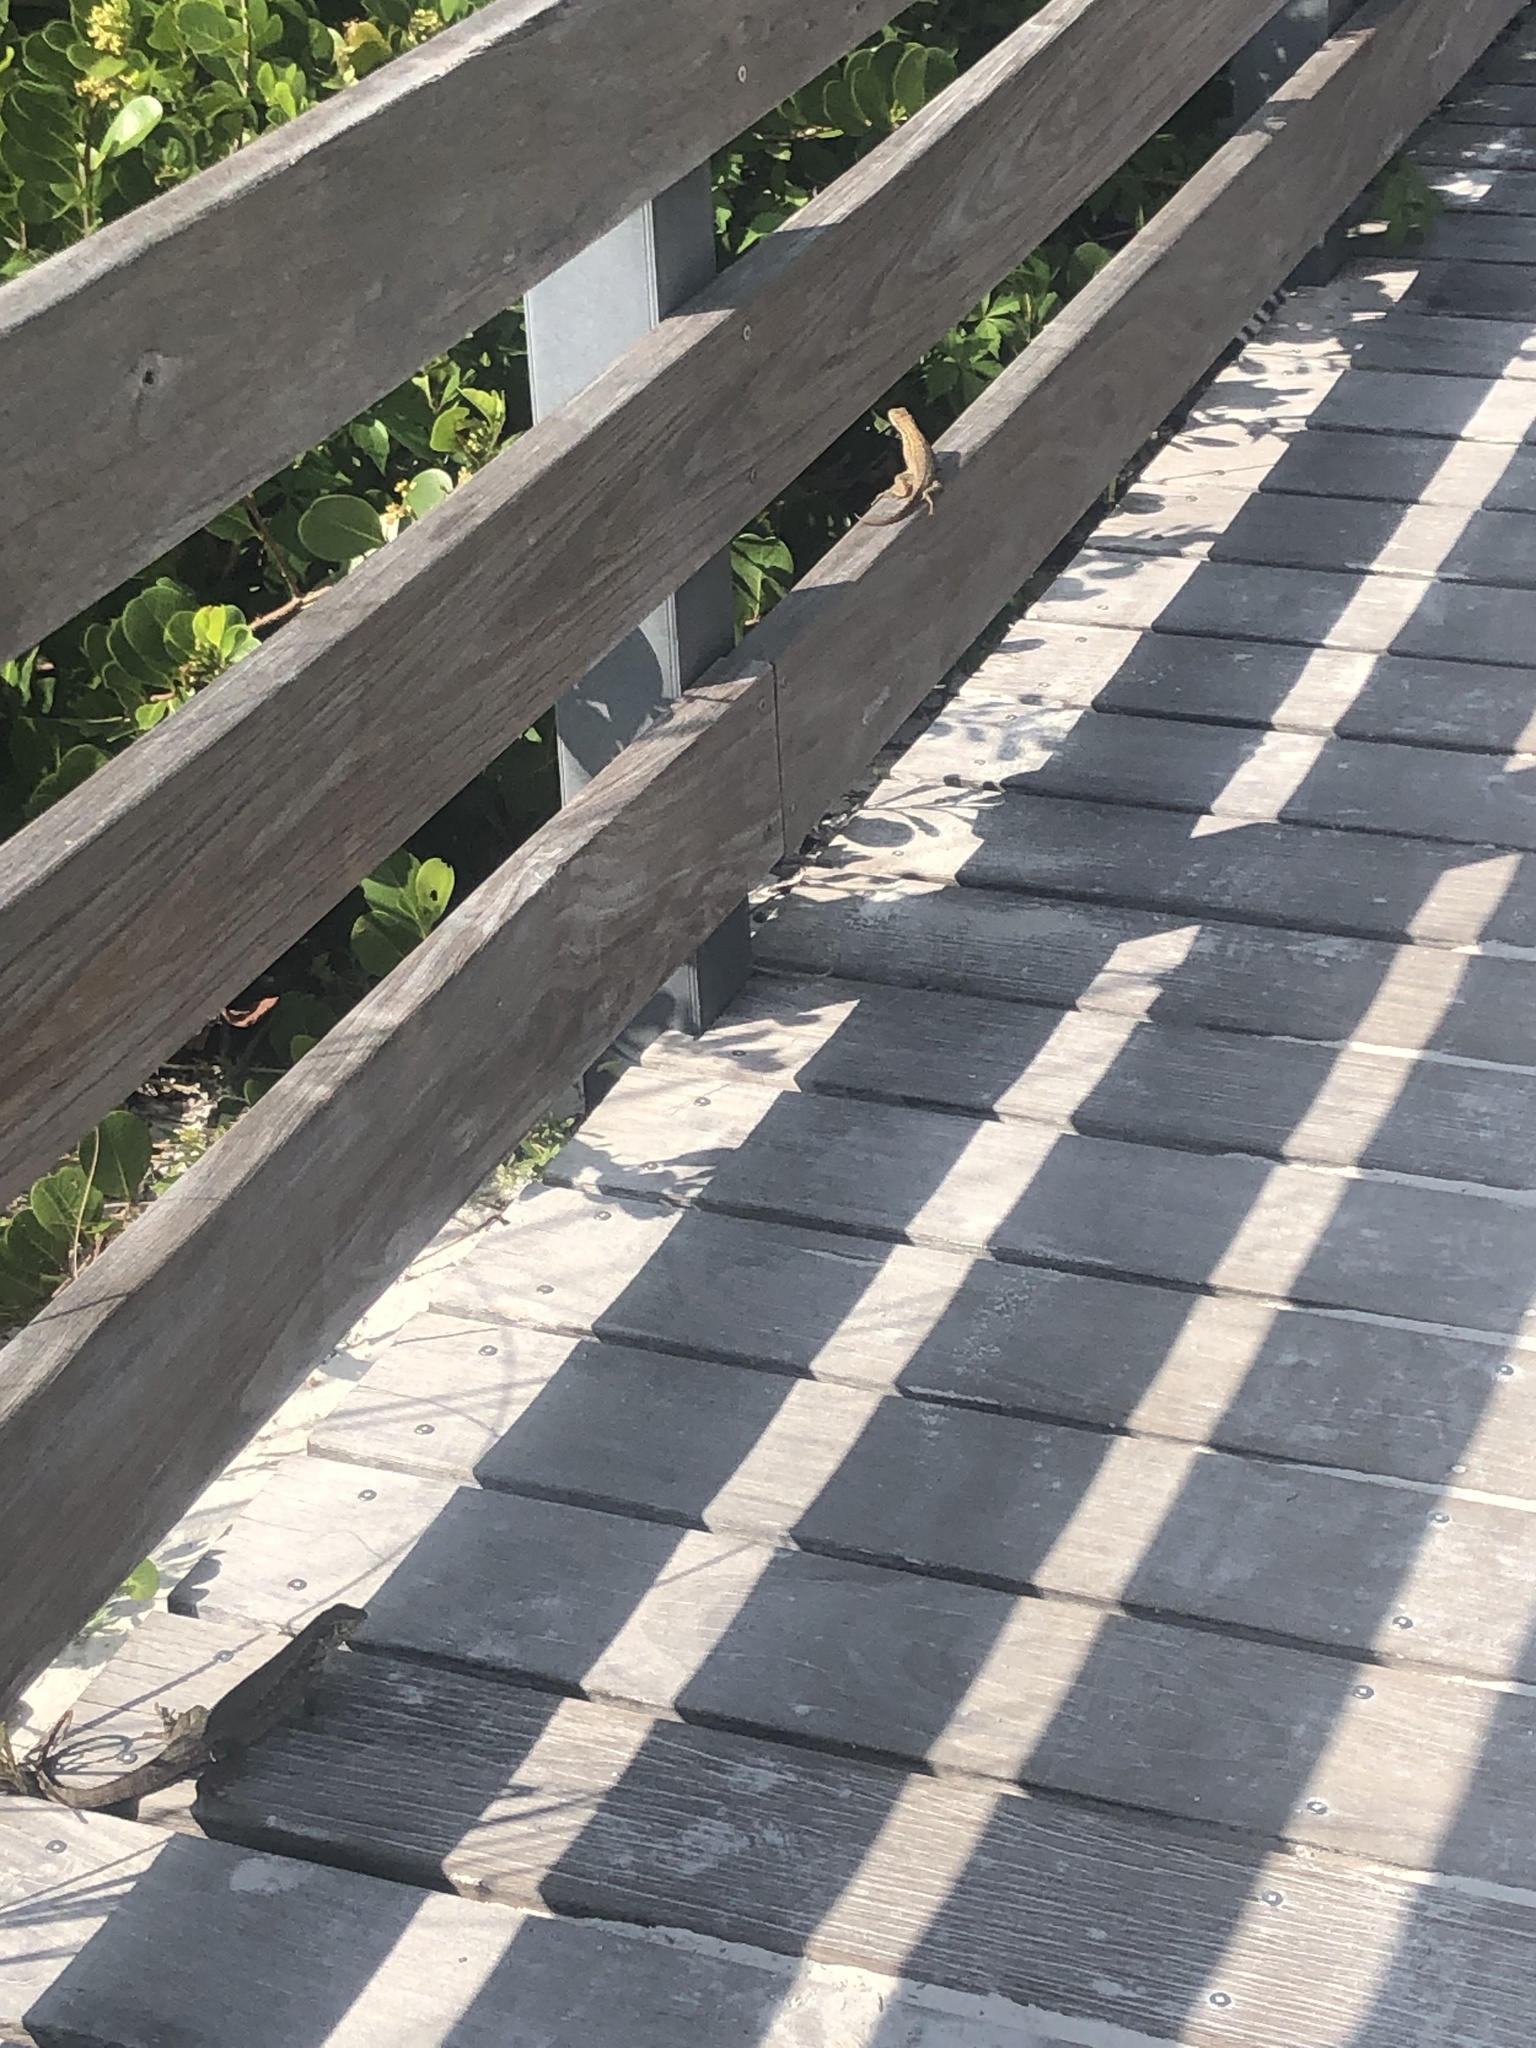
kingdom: Animalia
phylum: Chordata
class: Squamata
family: Leiocephalidae
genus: Leiocephalus
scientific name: Leiocephalus carinatus
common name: Northern curly-tailed lizard
